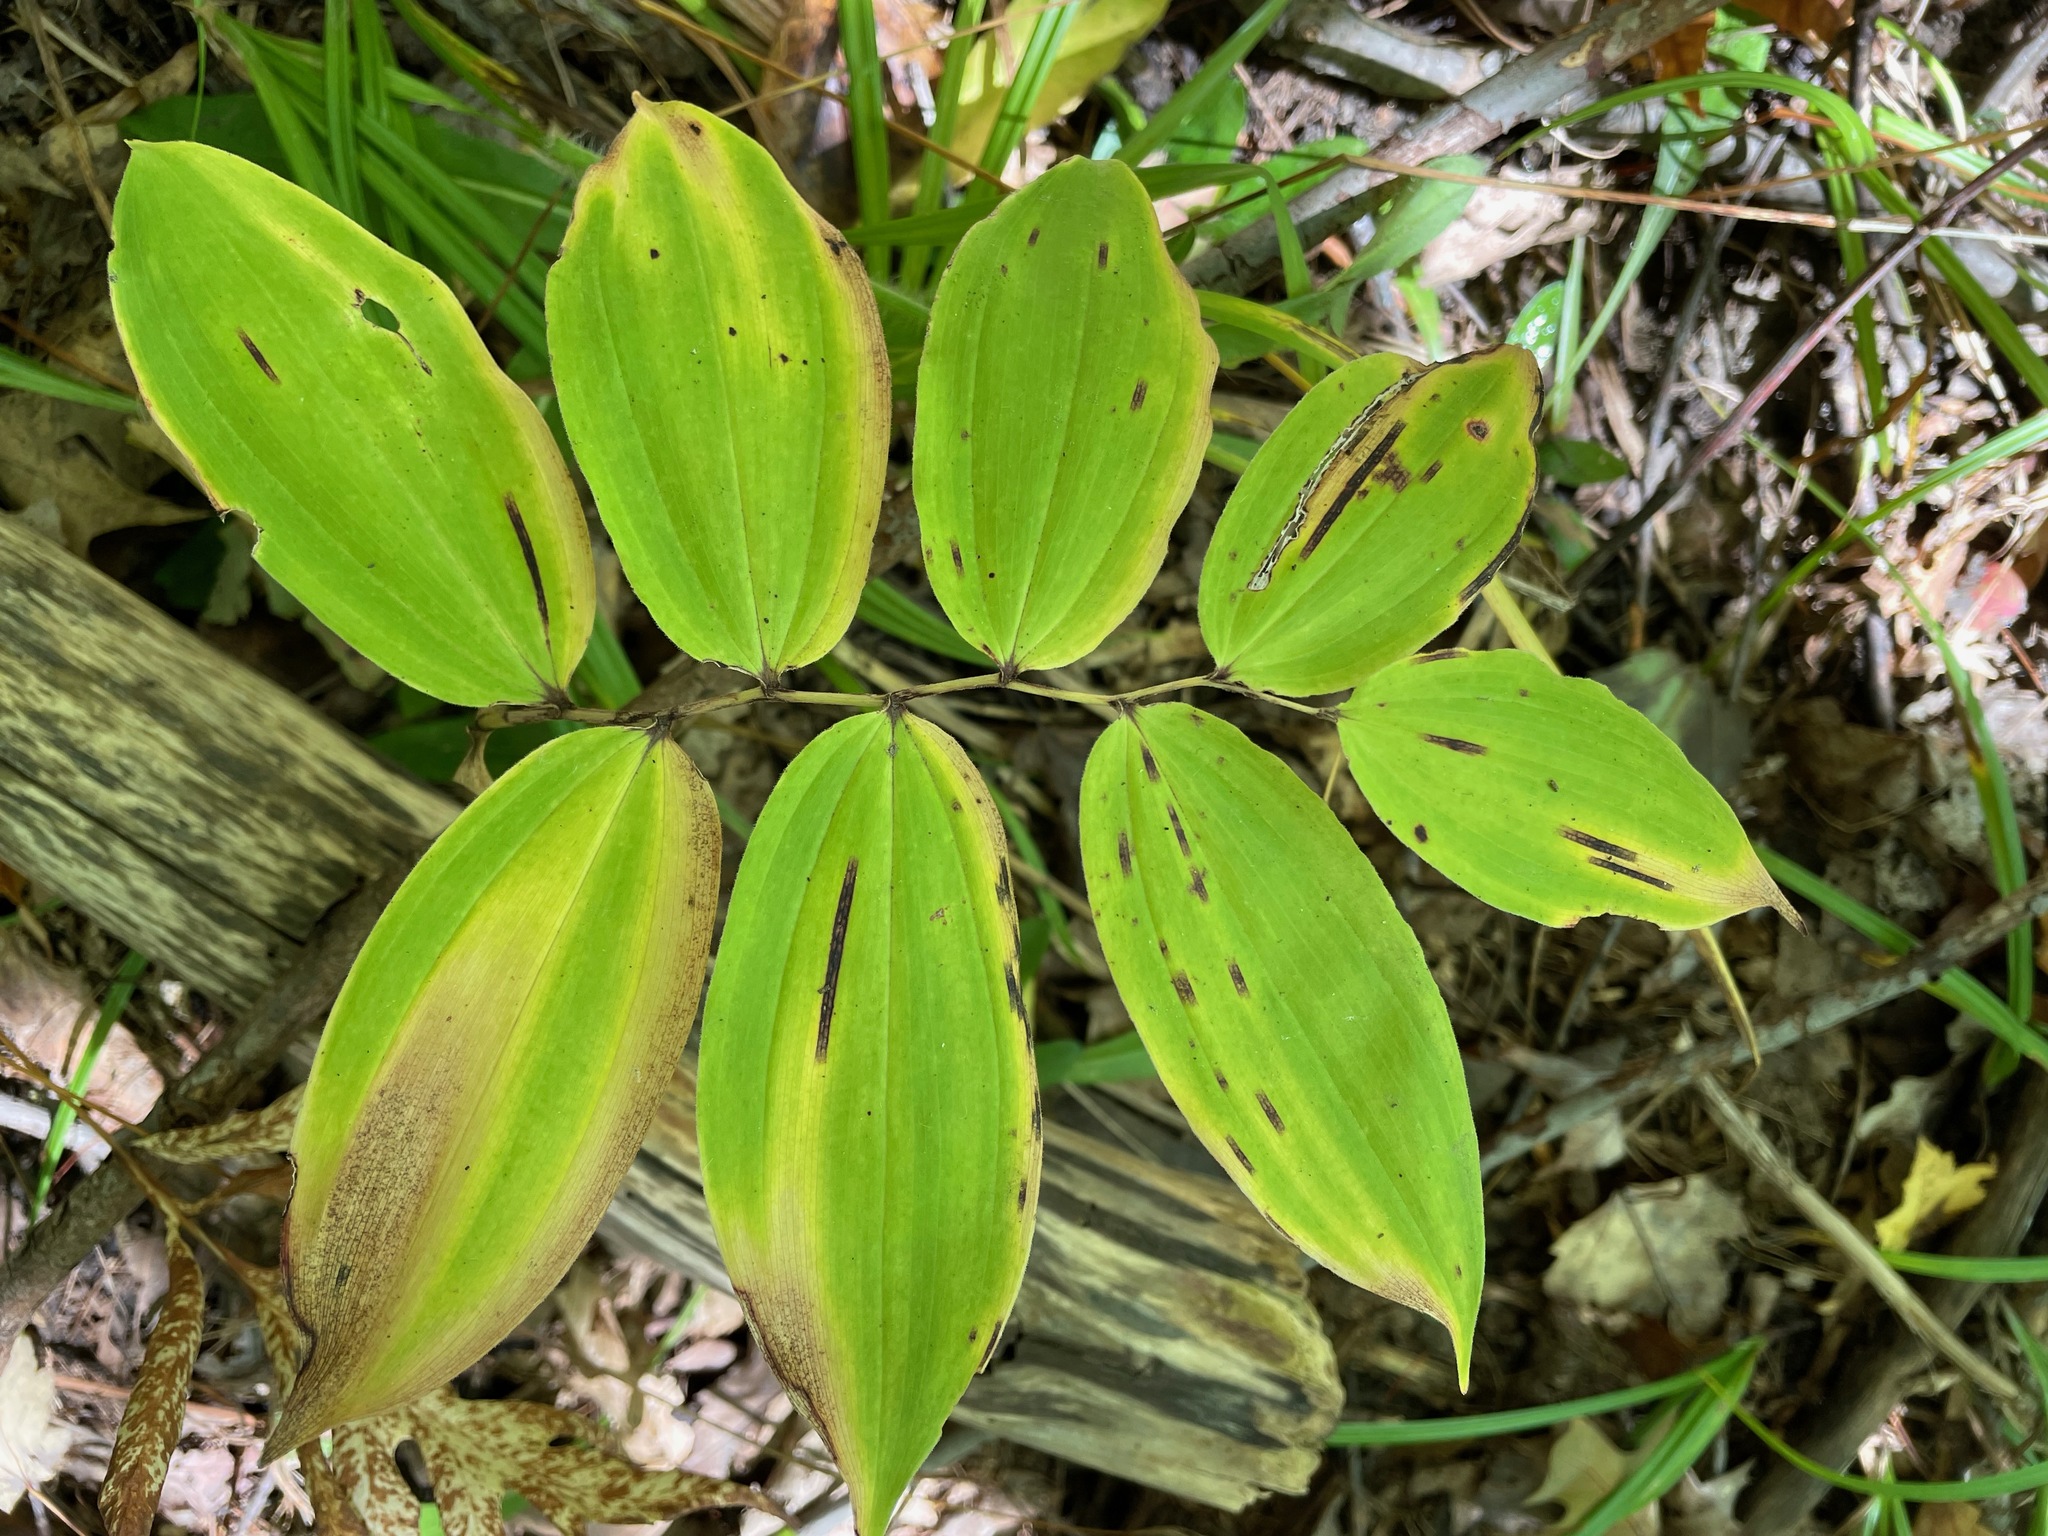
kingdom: Plantae
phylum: Tracheophyta
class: Liliopsida
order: Asparagales
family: Asparagaceae
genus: Maianthemum
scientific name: Maianthemum racemosum
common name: False spikenard
